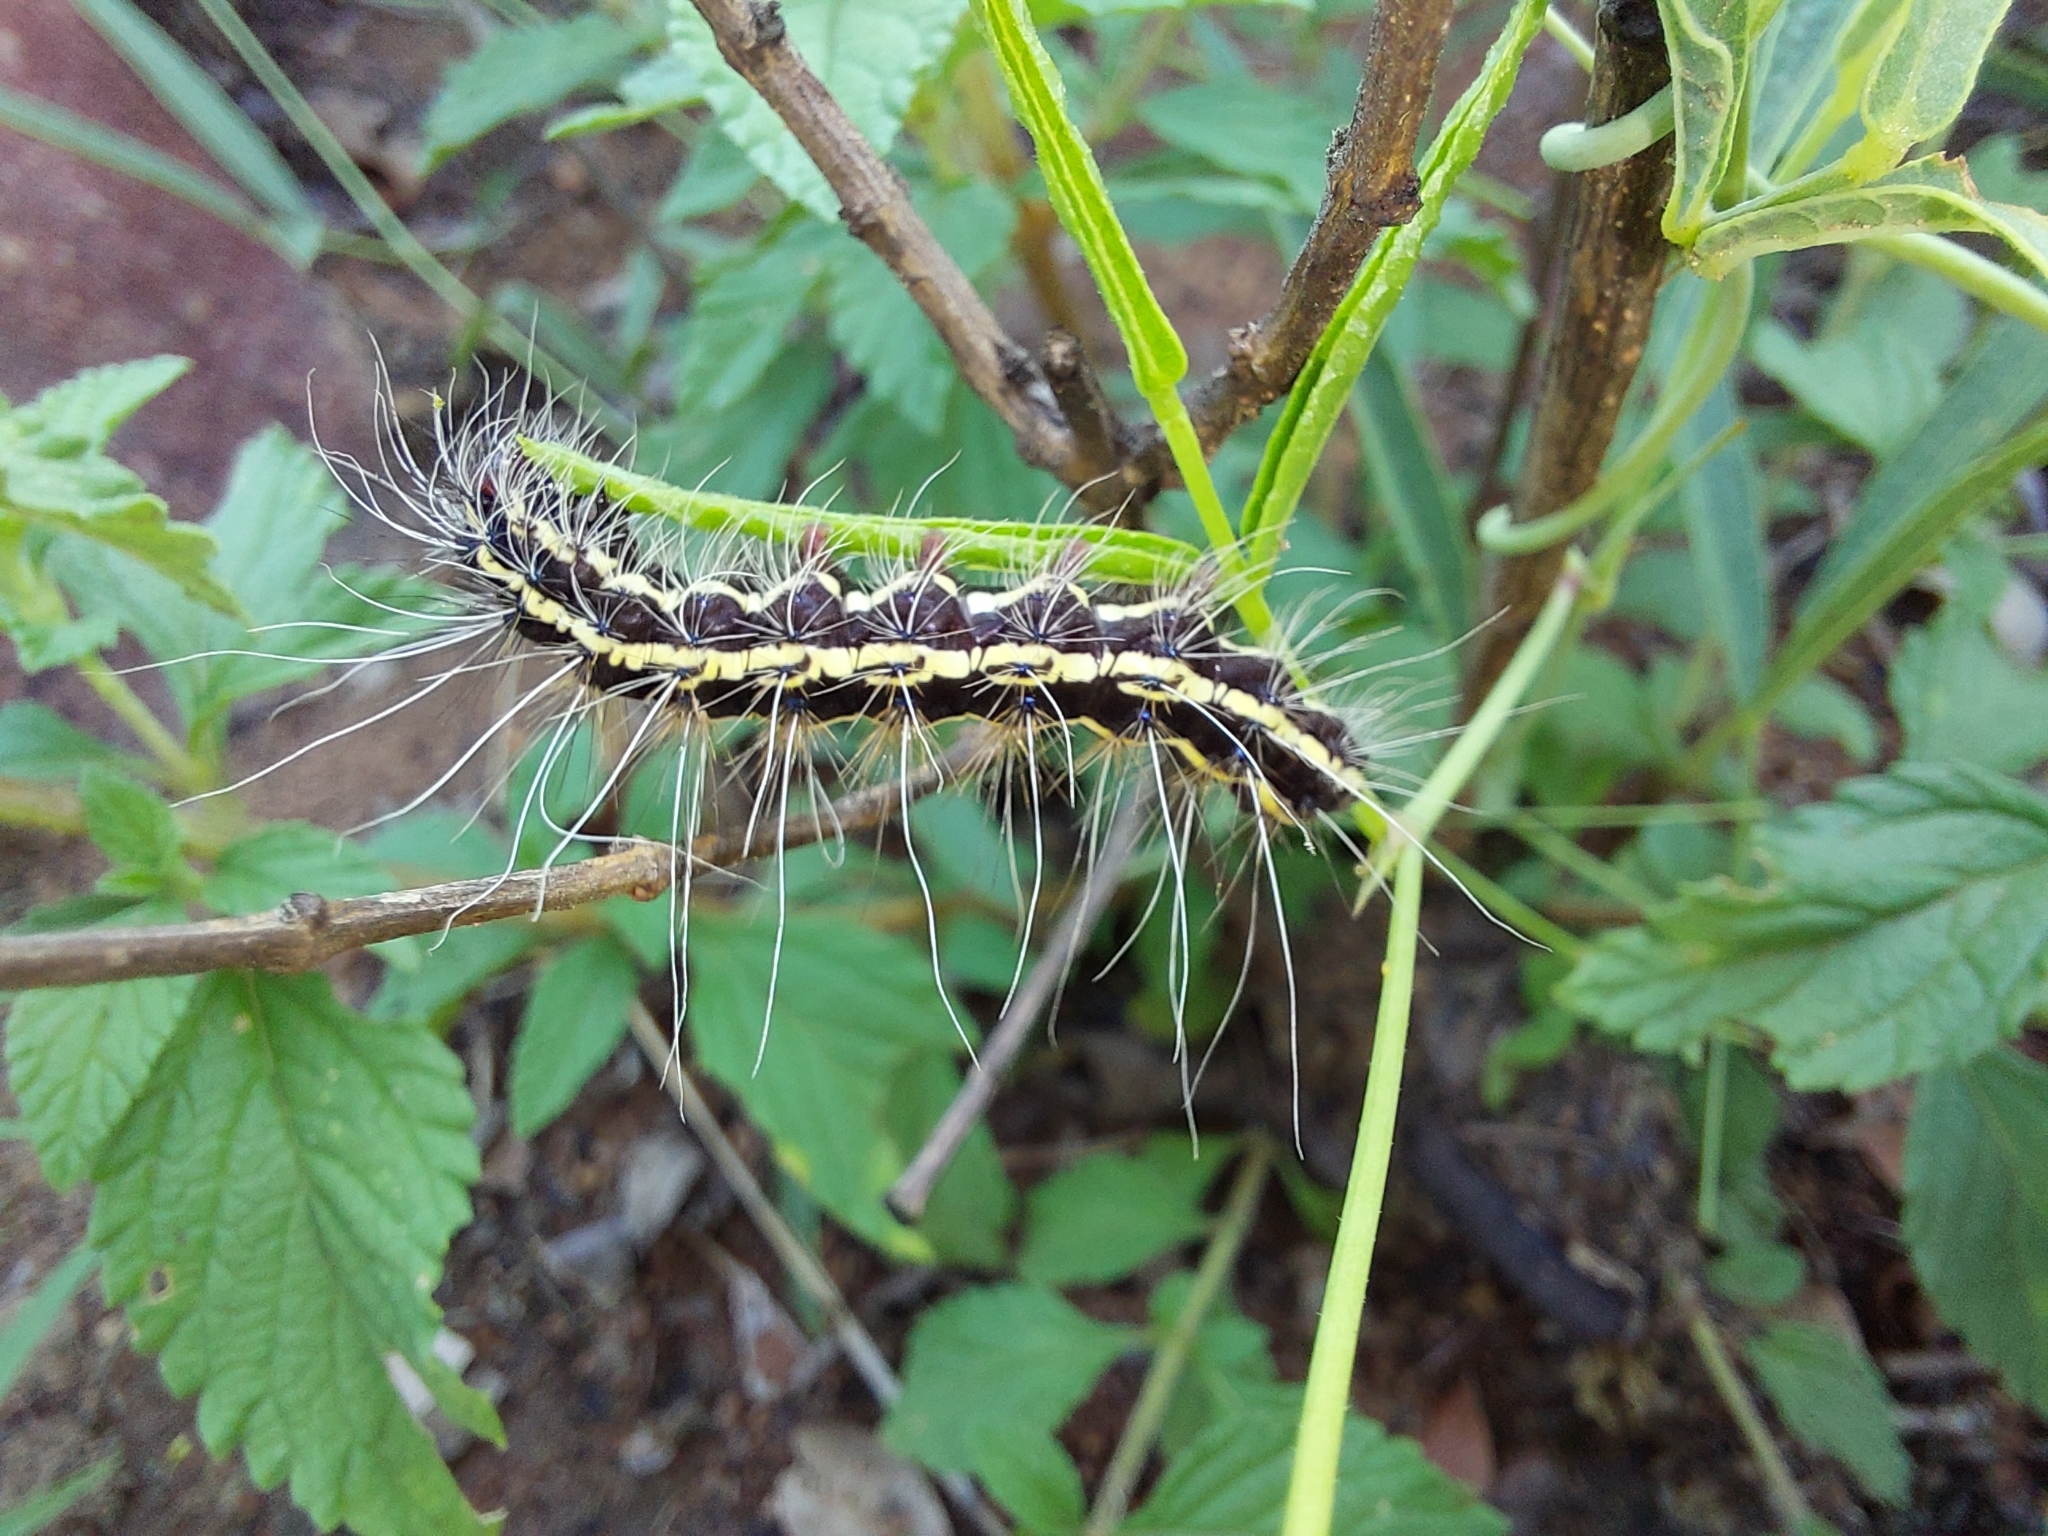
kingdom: Animalia
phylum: Arthropoda
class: Insecta
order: Lepidoptera
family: Erebidae
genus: Leucaloa
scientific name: Leucaloa eugraphica
